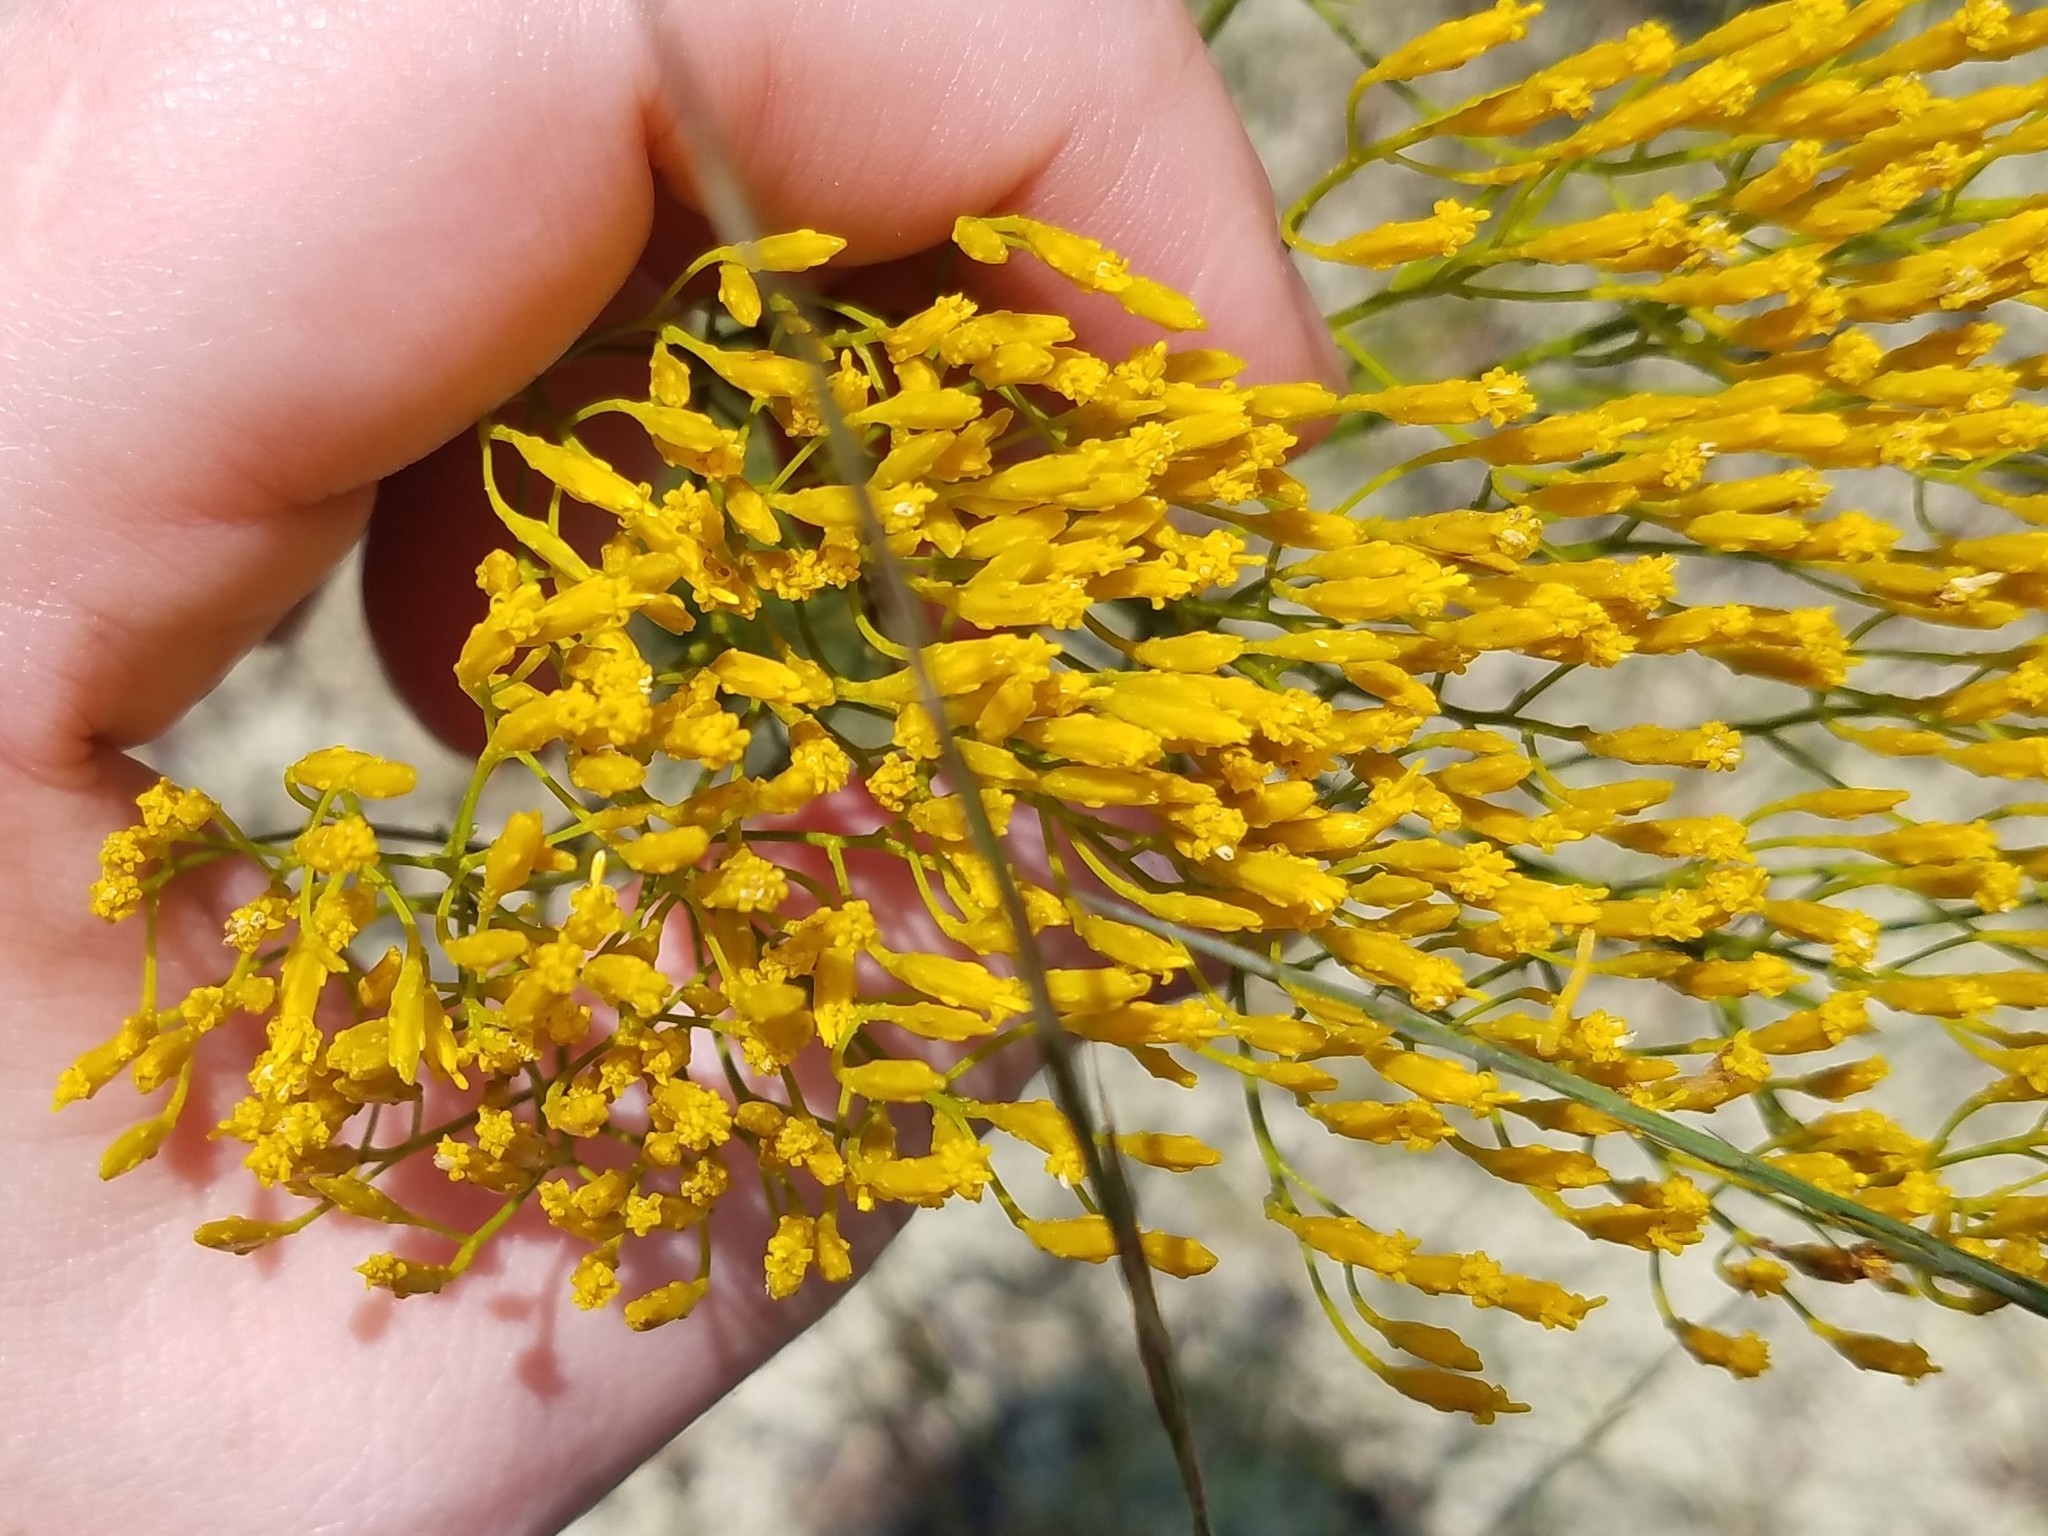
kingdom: Plantae
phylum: Tracheophyta
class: Magnoliopsida
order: Asterales
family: Asteraceae
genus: Bigelowia
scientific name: Bigelowia nuttallii
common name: Nuttall's rayless-goldenrod
